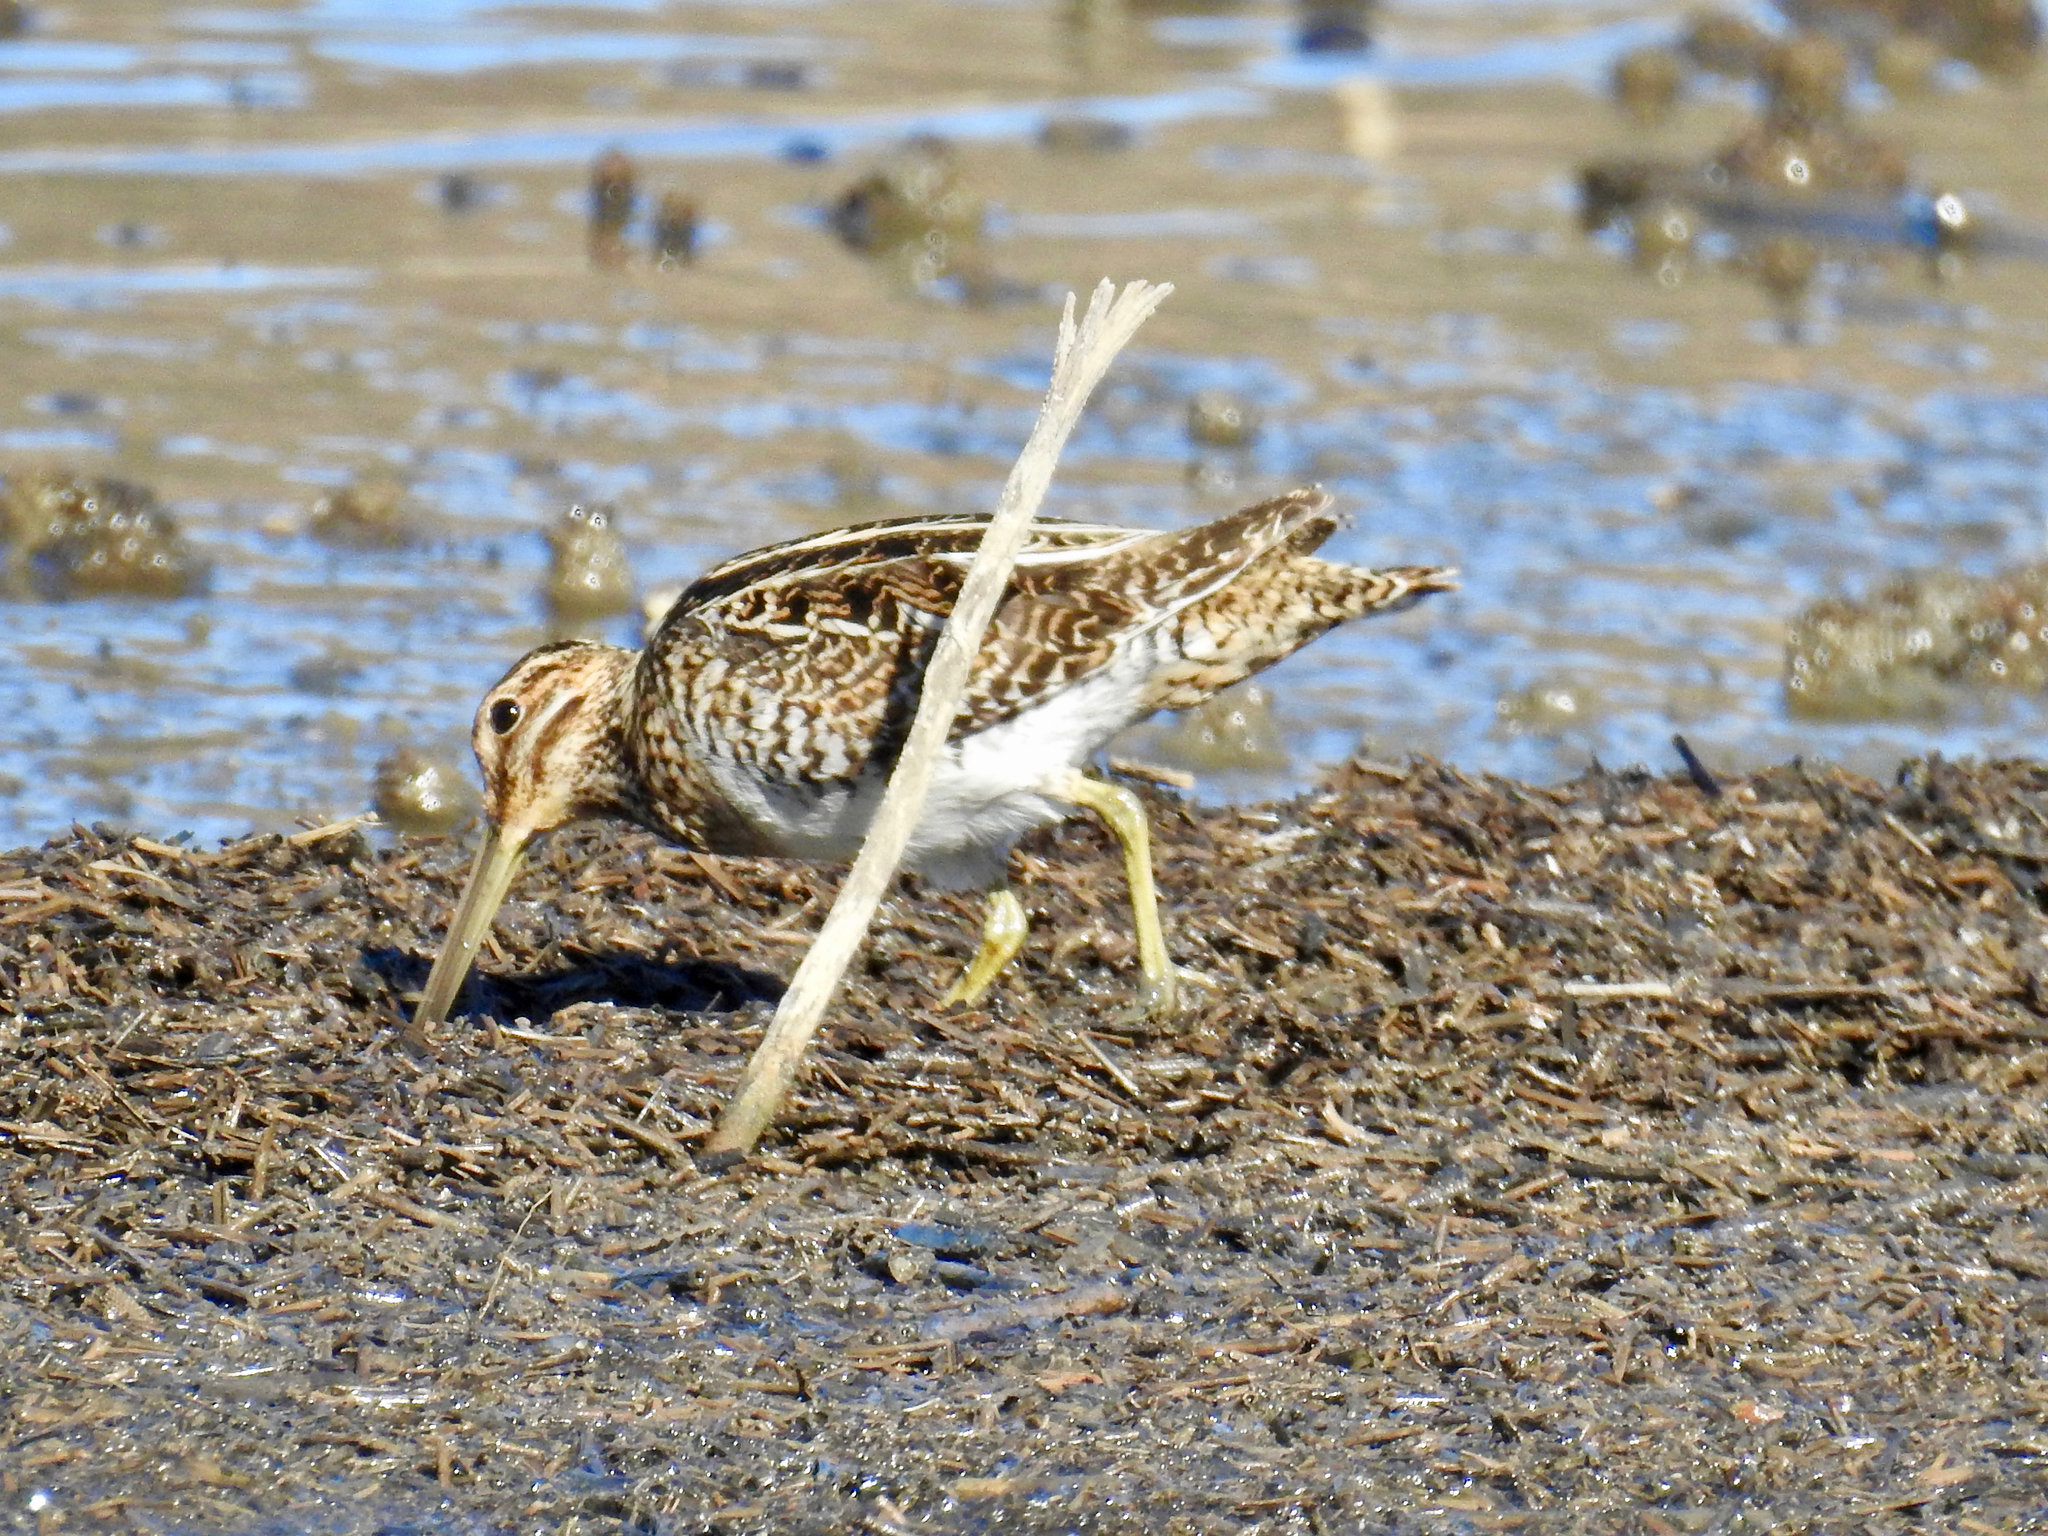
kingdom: Animalia
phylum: Chordata
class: Aves
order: Charadriiformes
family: Scolopacidae
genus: Gallinago
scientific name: Gallinago delicata
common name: Wilson's snipe
